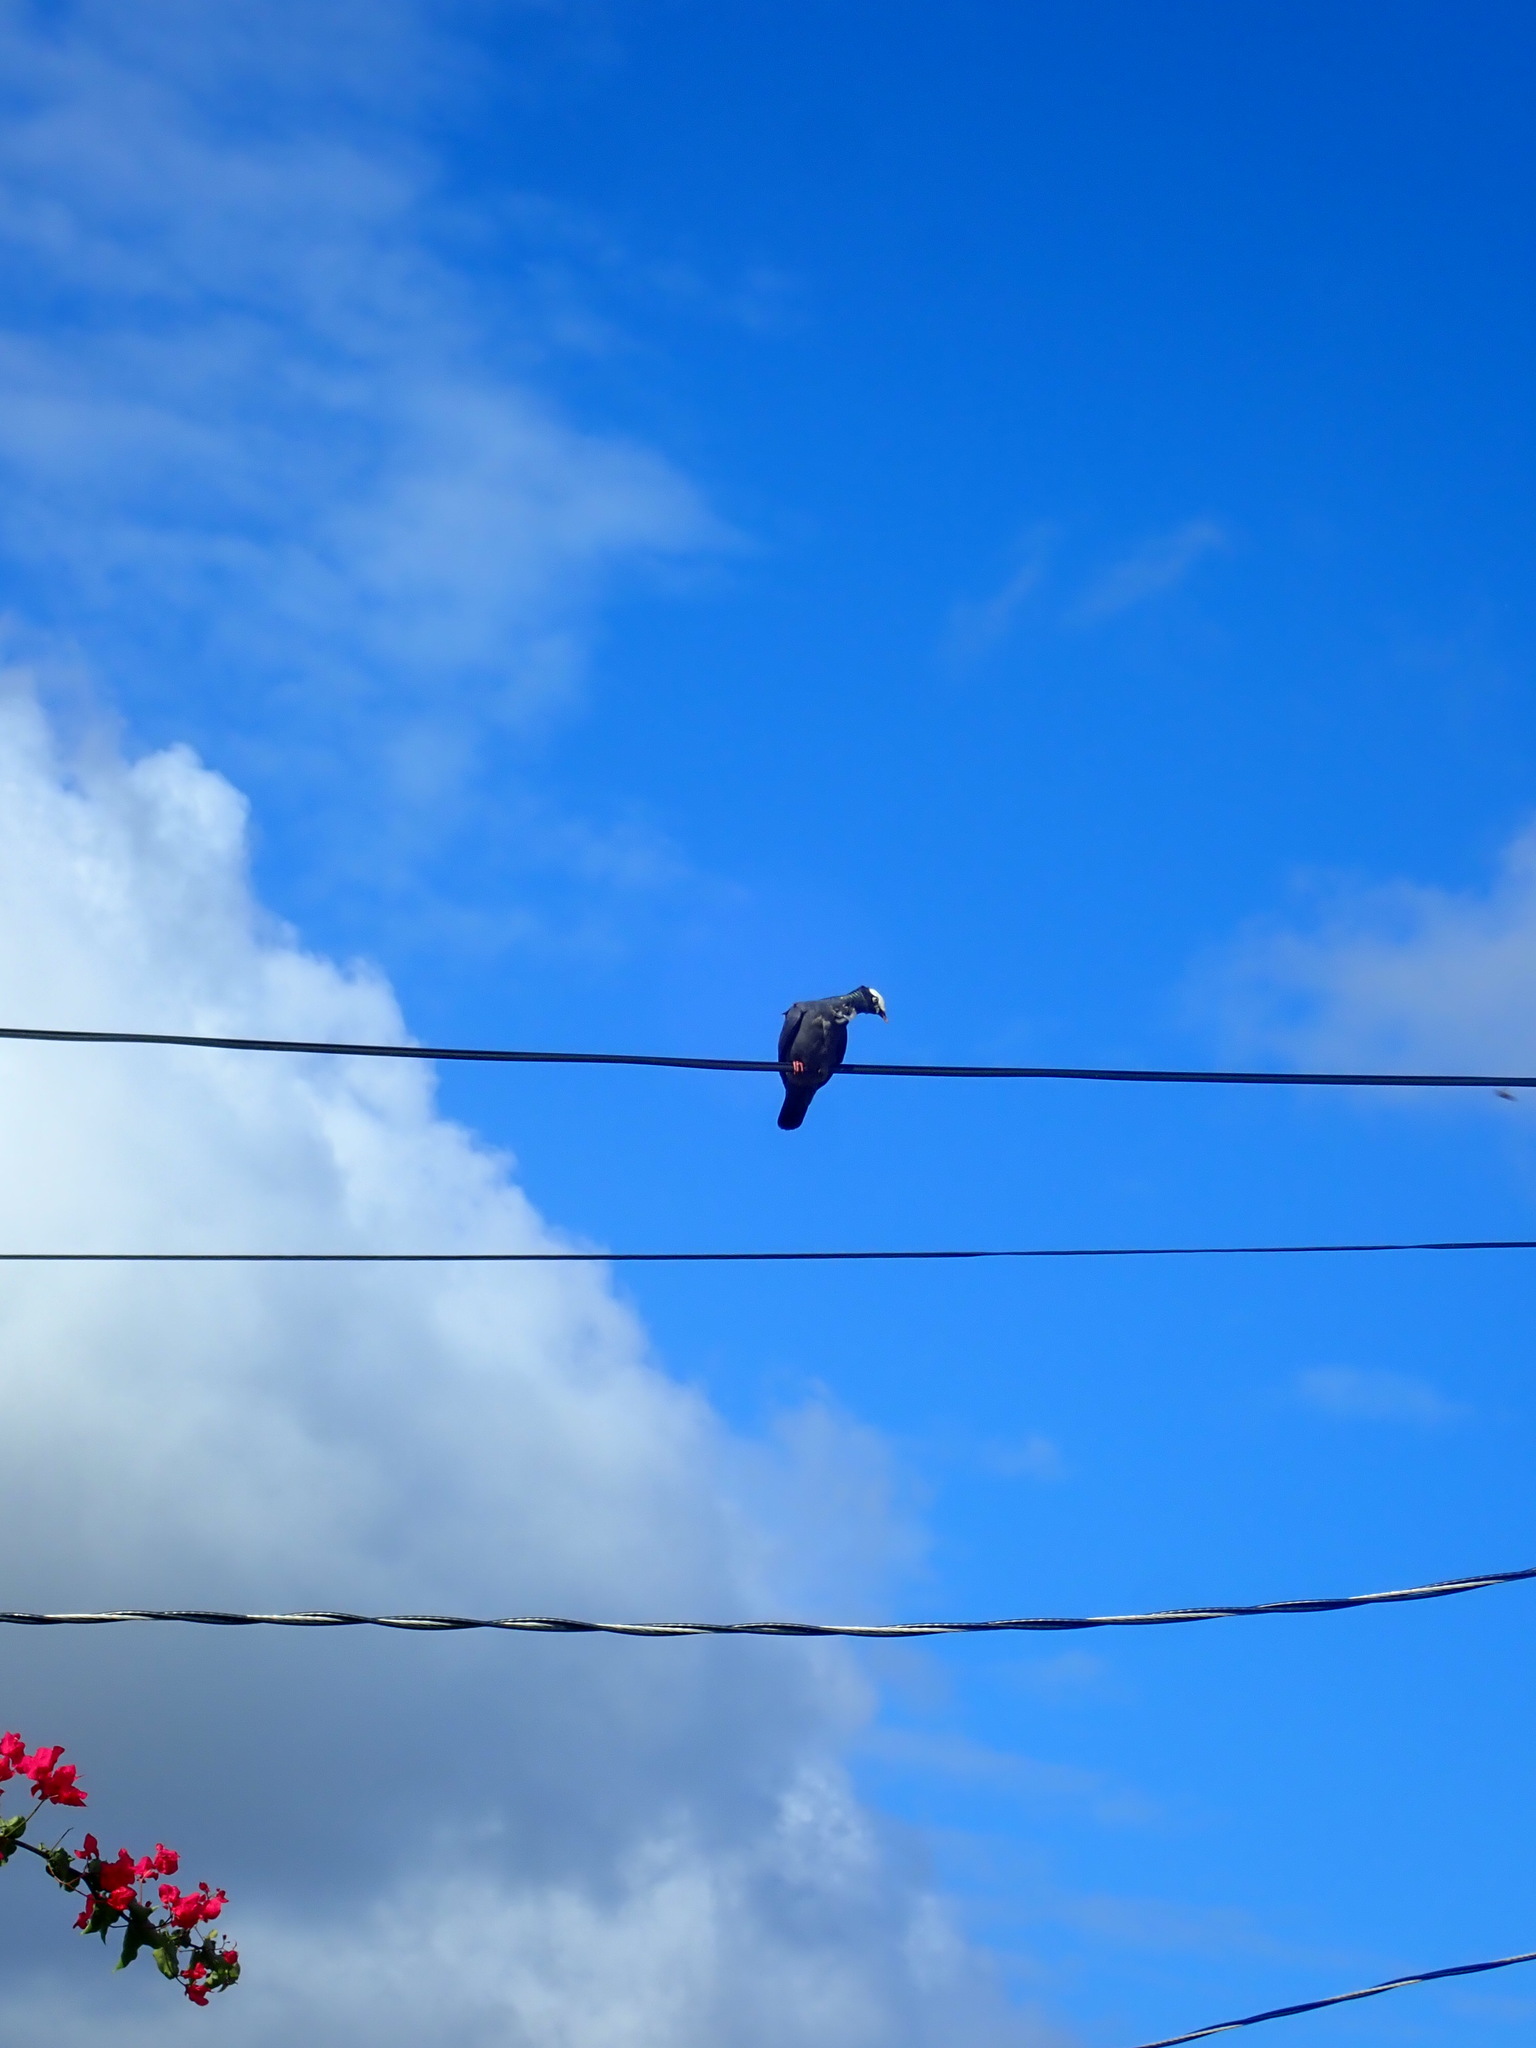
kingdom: Animalia
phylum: Chordata
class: Aves
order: Columbiformes
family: Columbidae
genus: Patagioenas
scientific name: Patagioenas leucocephala
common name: White-crowned pigeon
